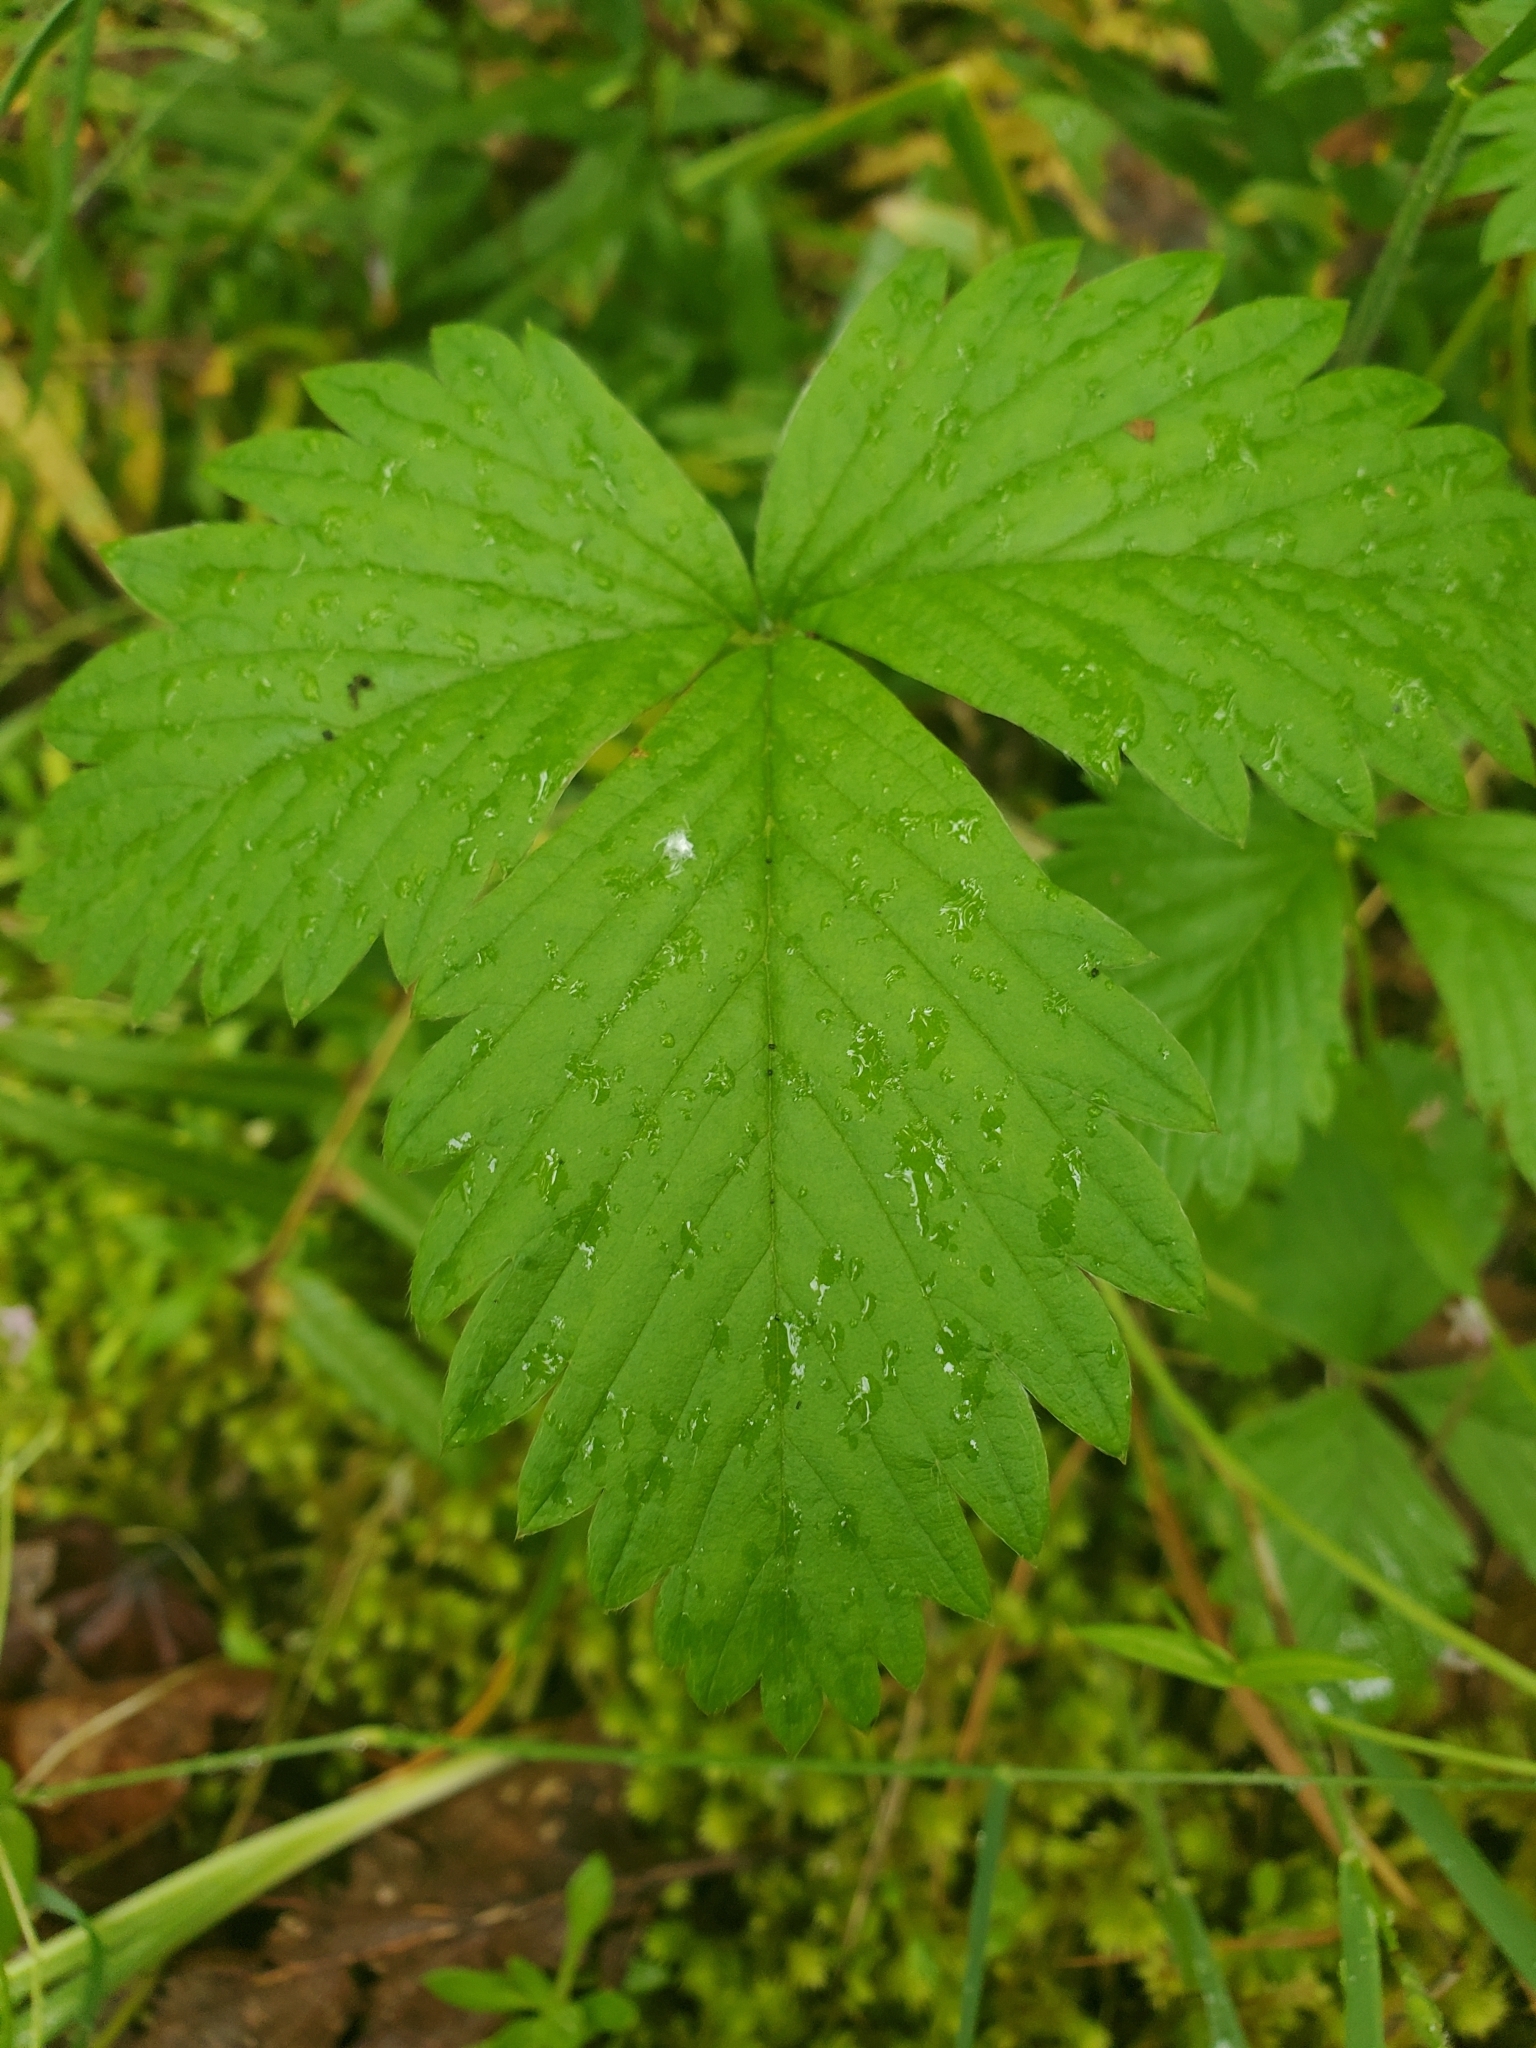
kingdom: Plantae
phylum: Tracheophyta
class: Magnoliopsida
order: Rosales
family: Rosaceae
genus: Fragaria
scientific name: Fragaria vesca
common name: Wild strawberry
